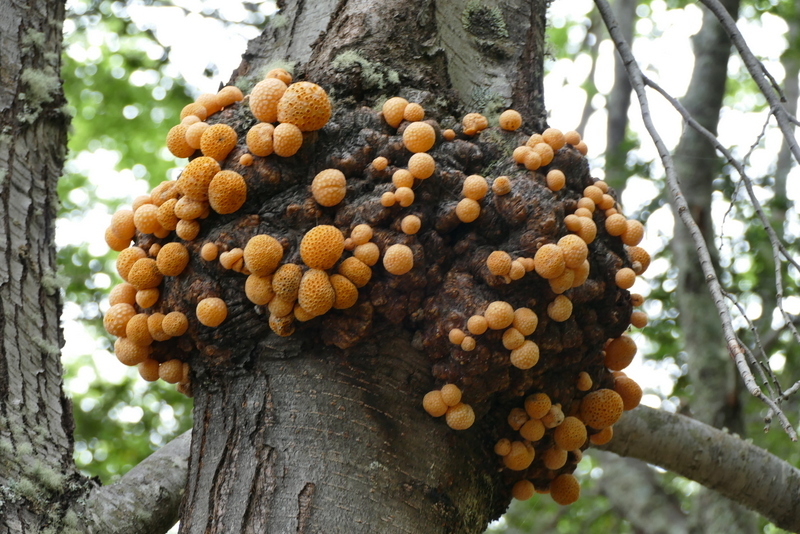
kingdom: Fungi
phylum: Ascomycota
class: Leotiomycetes
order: Cyttariales
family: Cyttariaceae
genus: Cyttaria
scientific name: Cyttaria darwinii
